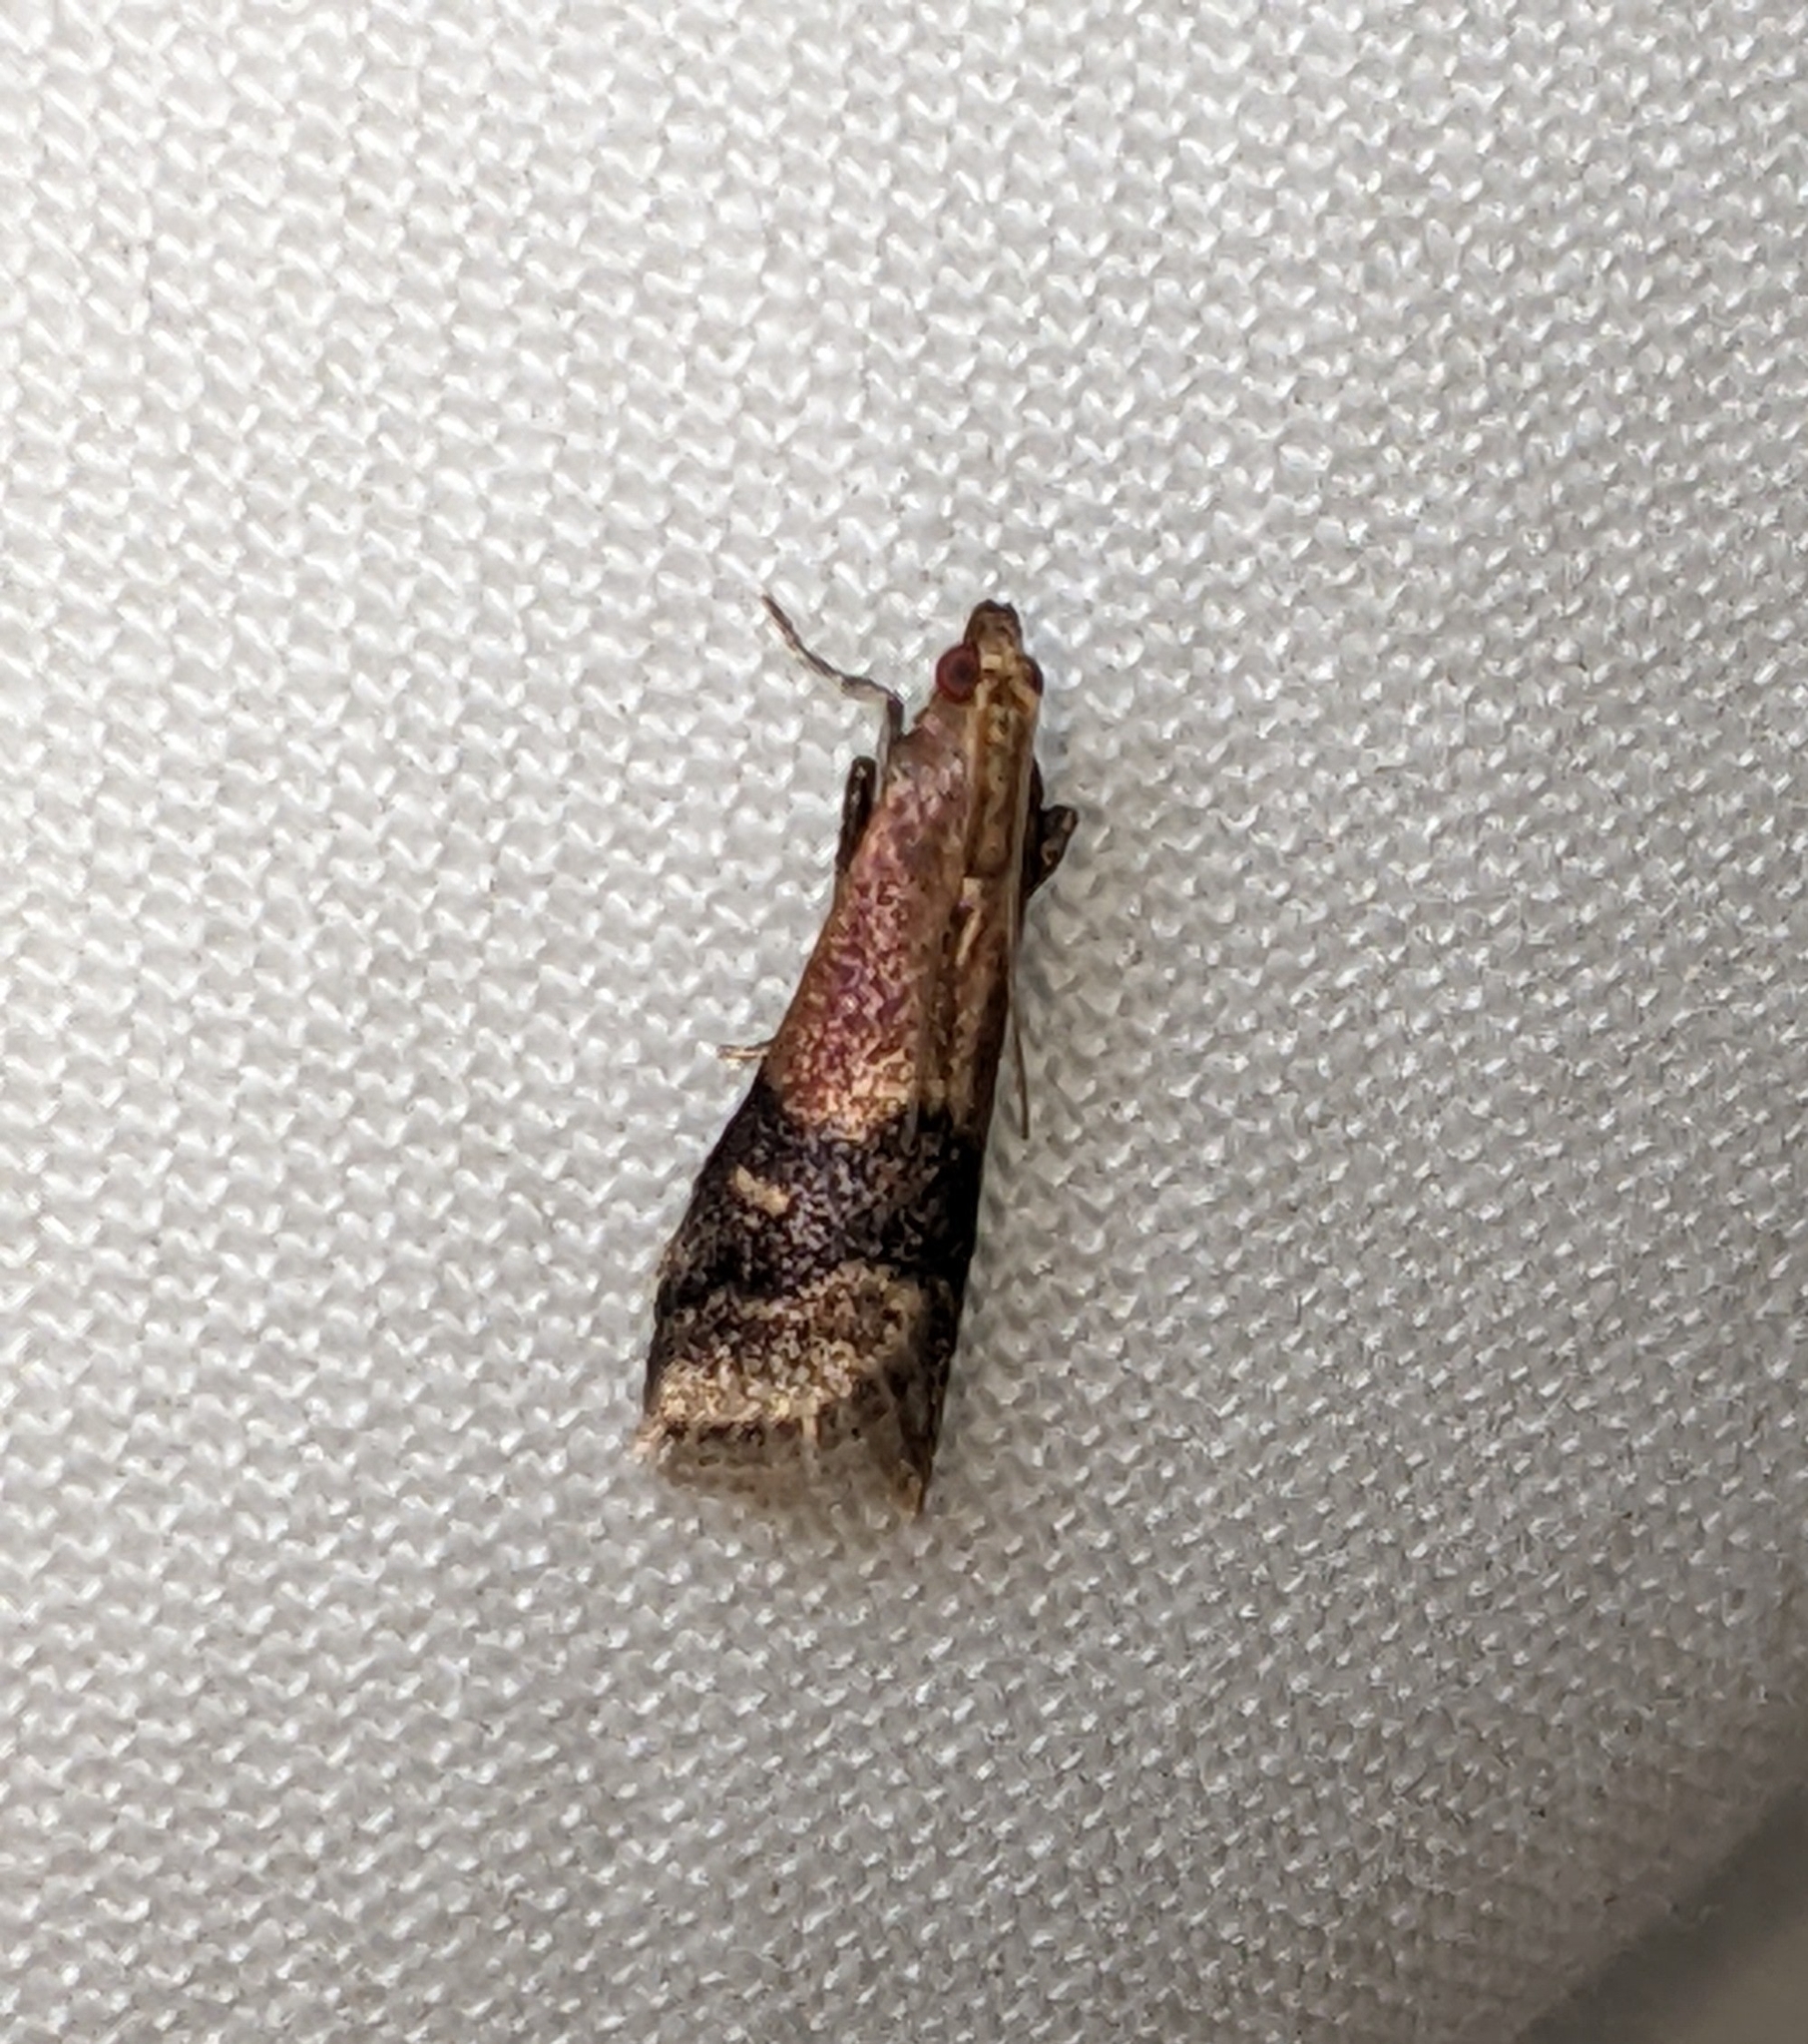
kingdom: Animalia
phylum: Arthropoda
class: Insecta
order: Lepidoptera
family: Pyralidae
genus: Eulogia
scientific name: Eulogia ochrifrontella
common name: Broad-banded eulogia moth
